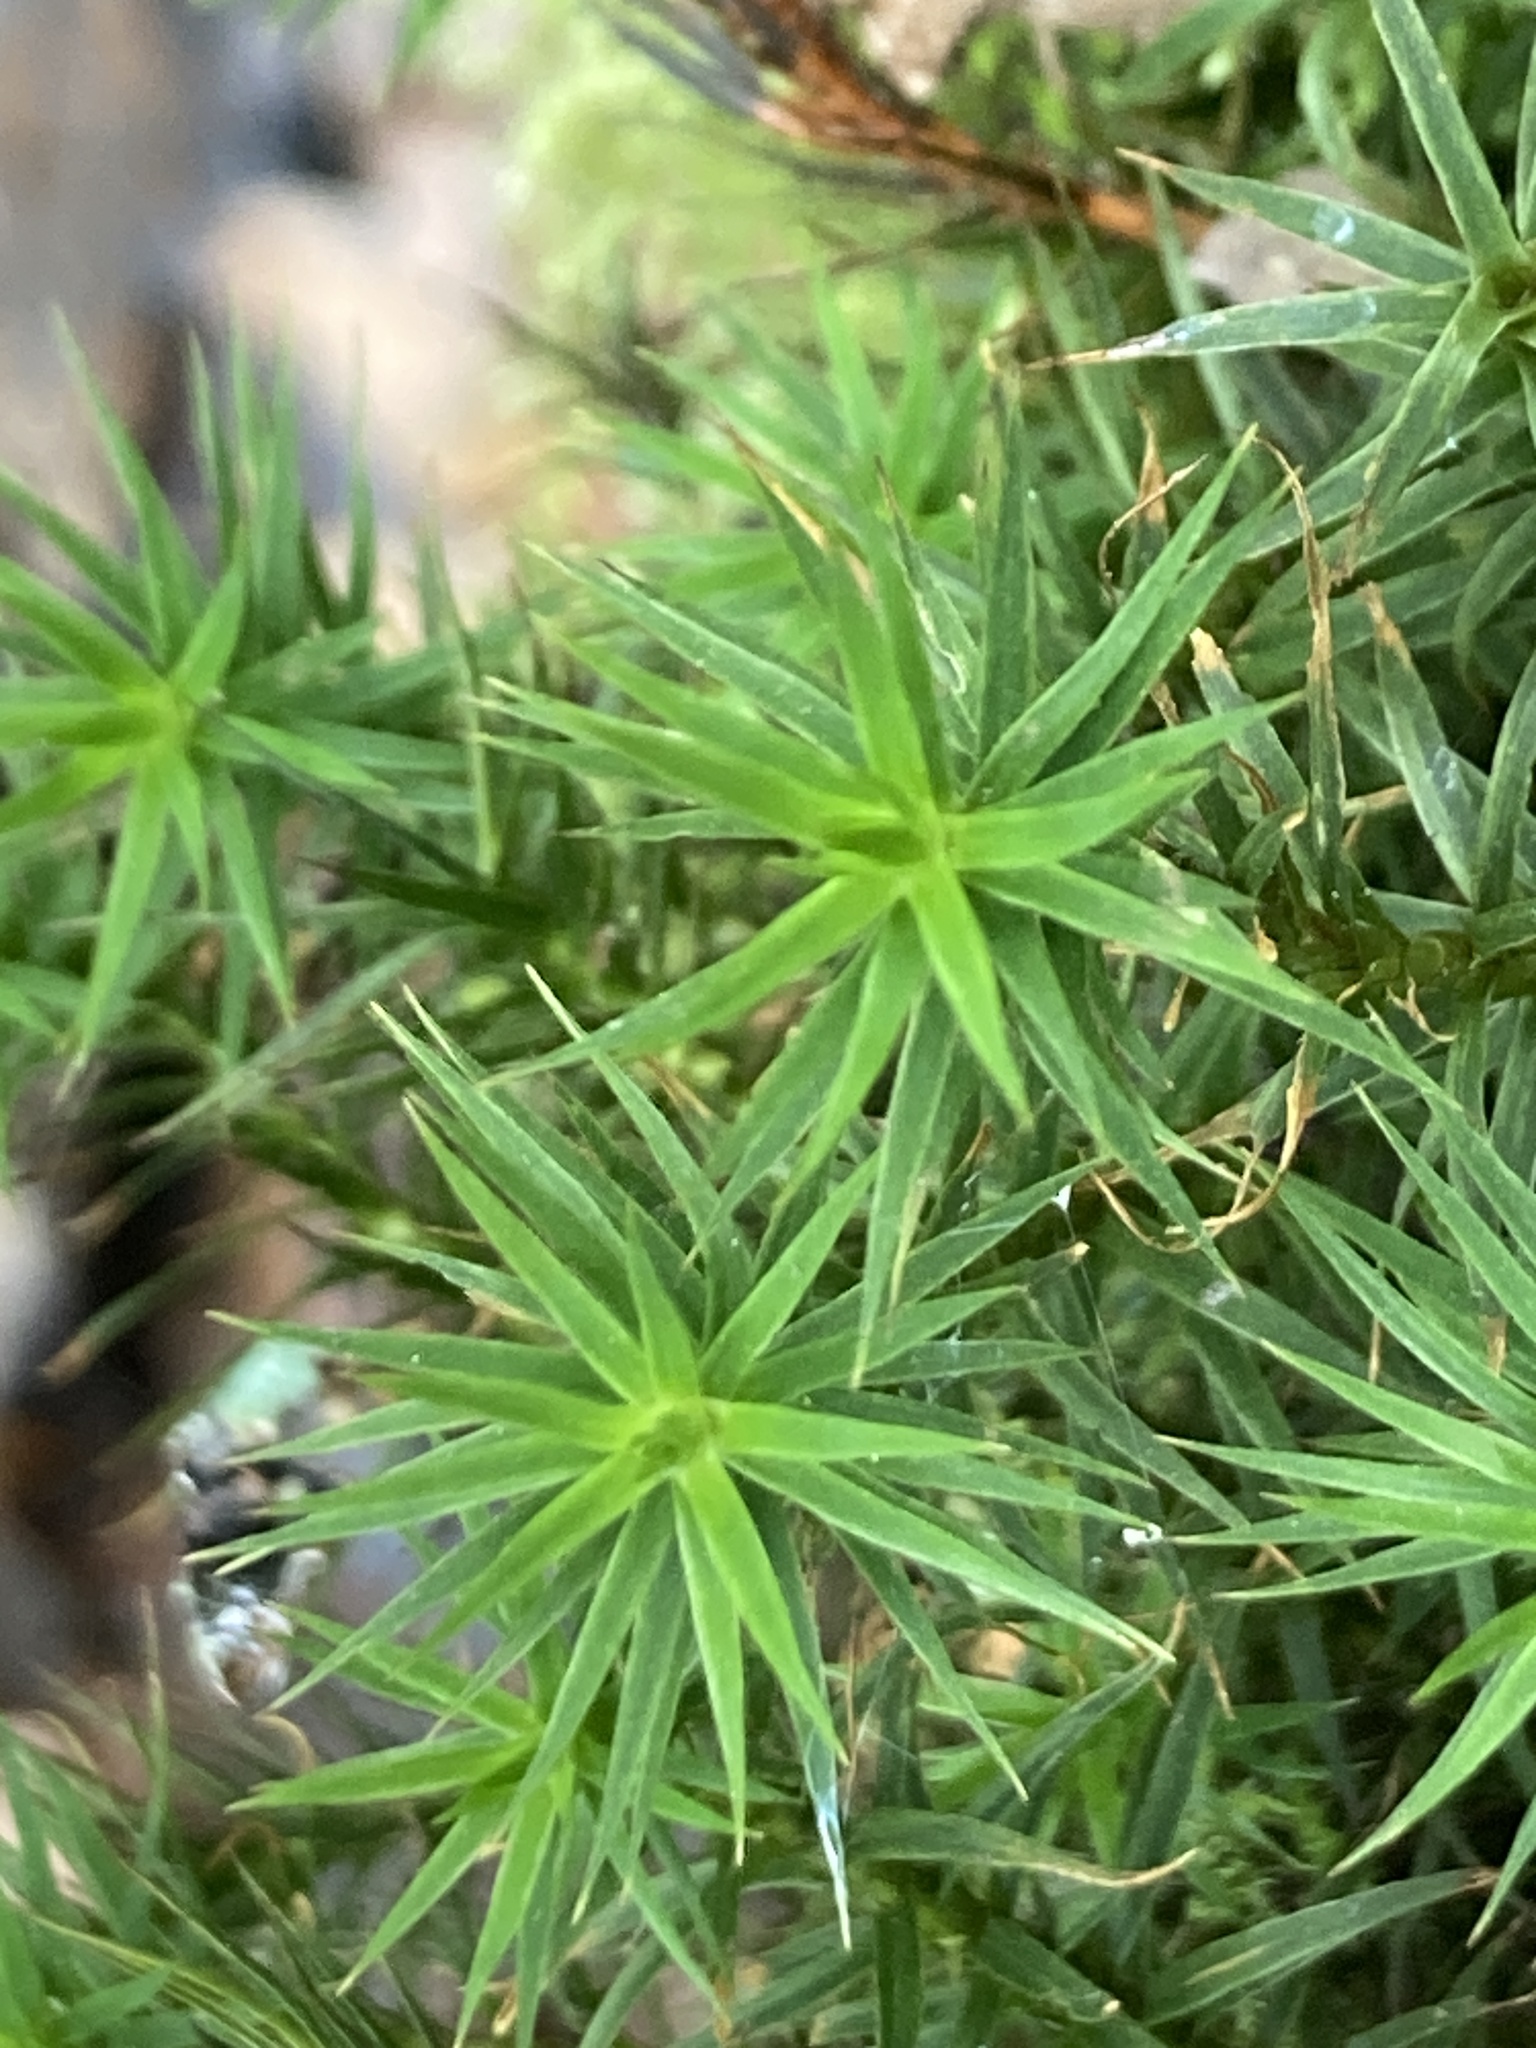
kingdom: Plantae
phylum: Bryophyta
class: Polytrichopsida
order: Polytrichales
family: Polytrichaceae
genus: Polytrichum
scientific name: Polytrichum formosum
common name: Bank haircap moss
